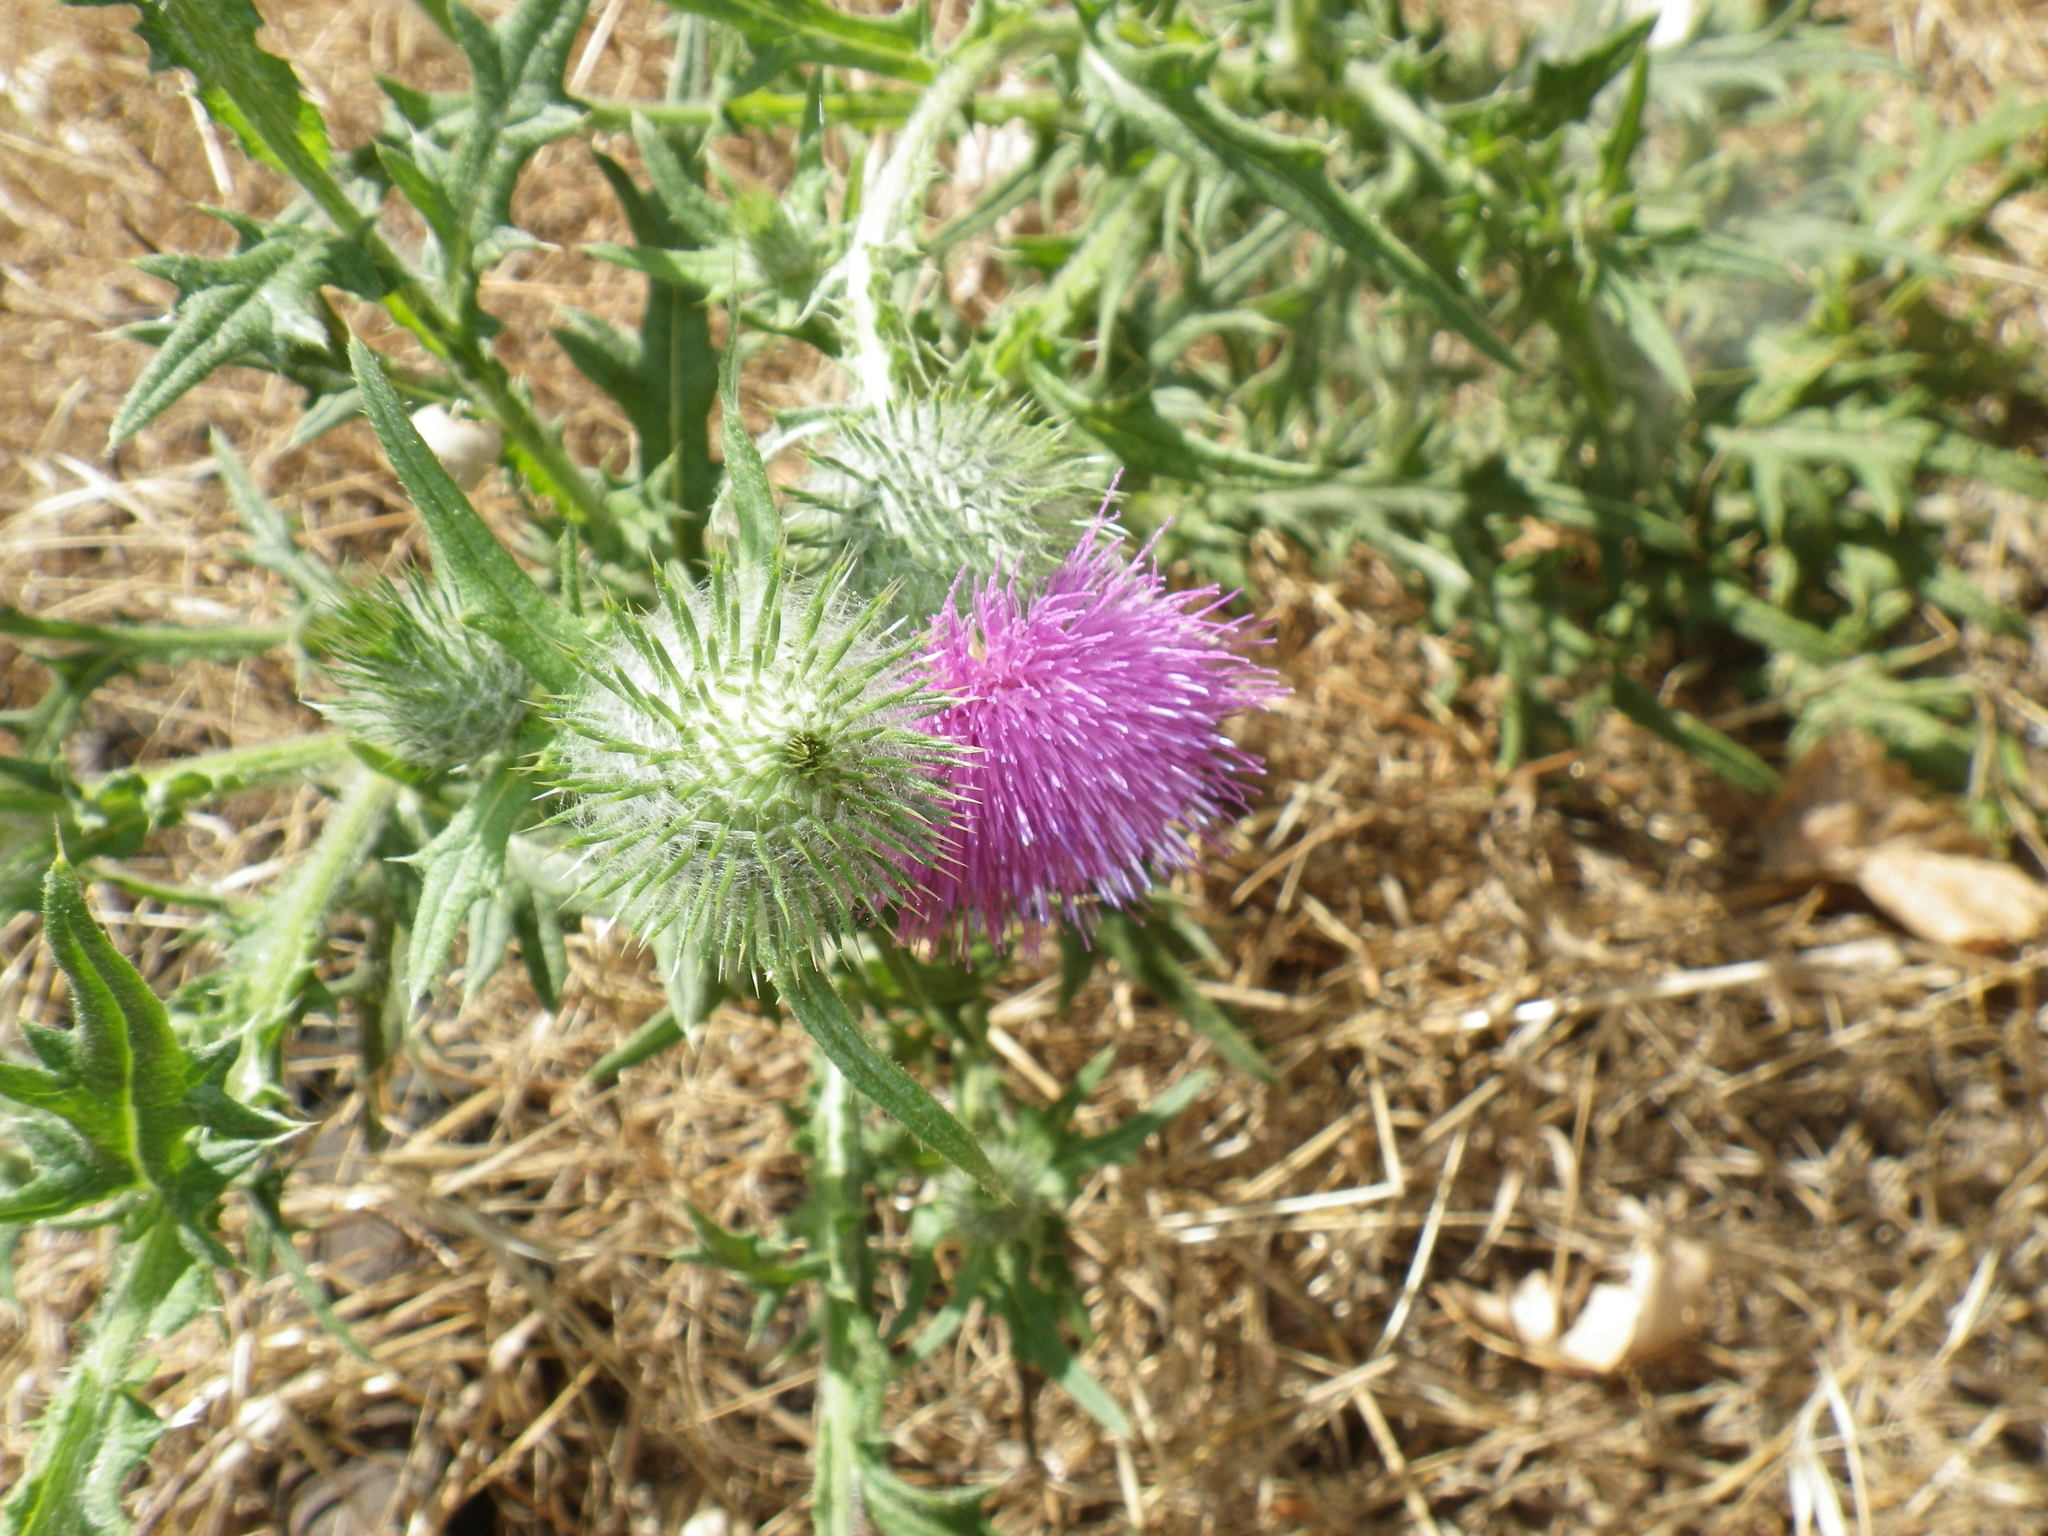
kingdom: Plantae
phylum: Tracheophyta
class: Magnoliopsida
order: Asterales
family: Asteraceae
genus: Cirsium
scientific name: Cirsium vulgare
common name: Bull thistle
